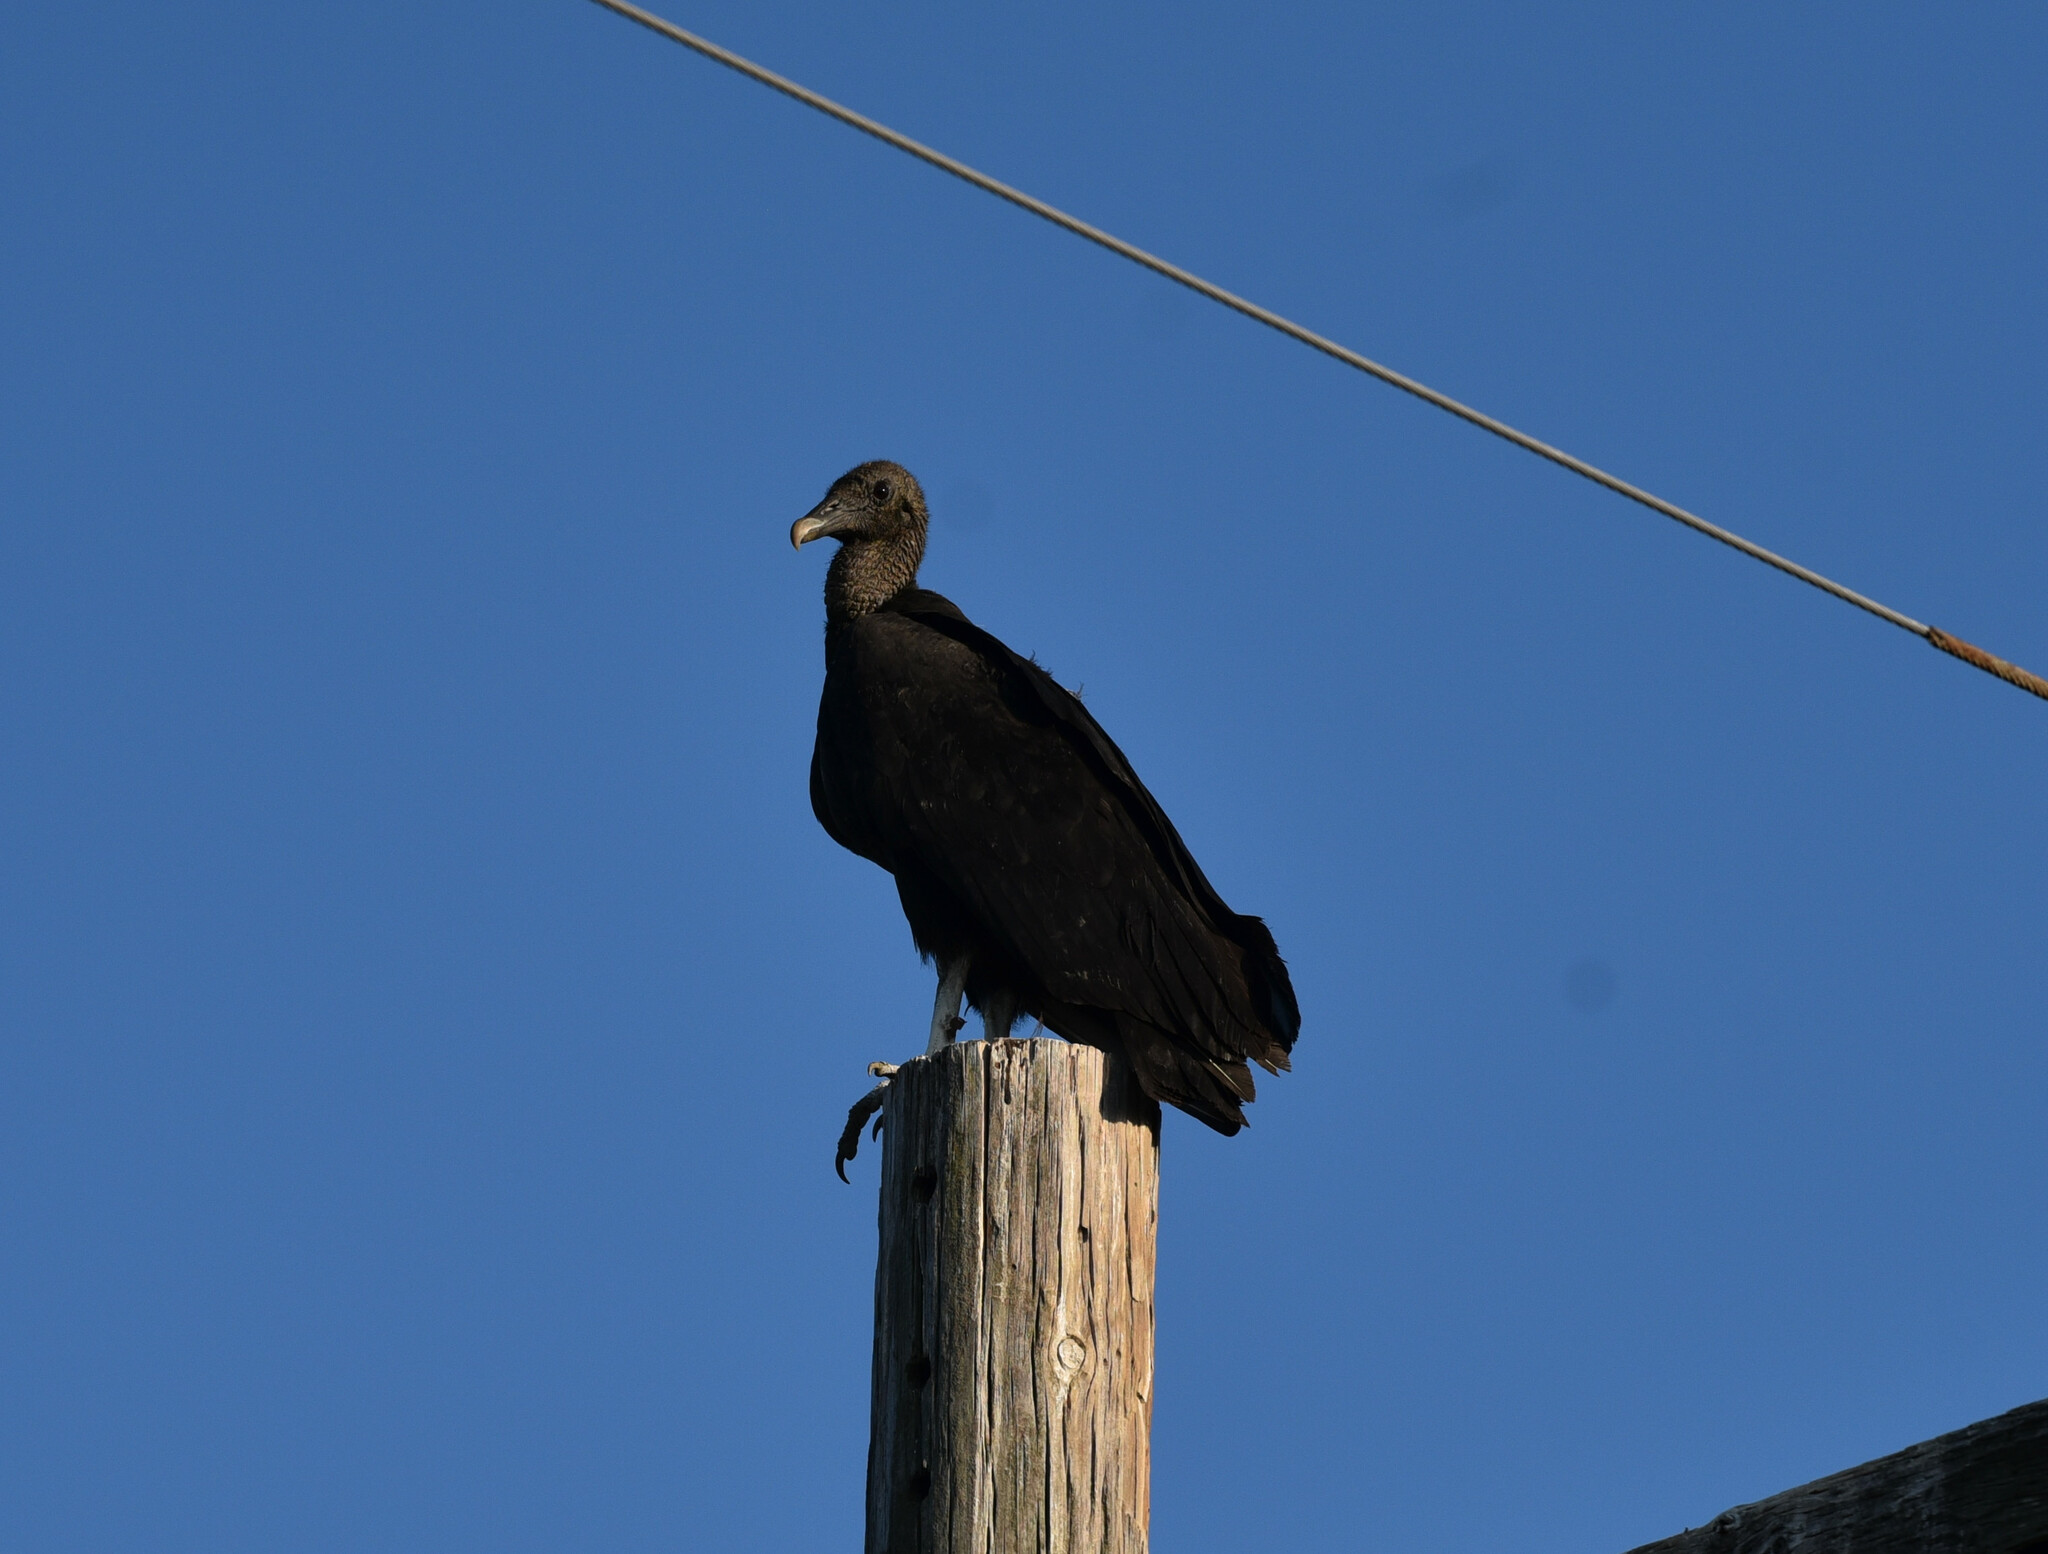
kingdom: Animalia
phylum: Chordata
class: Aves
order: Accipitriformes
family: Cathartidae
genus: Coragyps
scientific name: Coragyps atratus
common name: Black vulture
